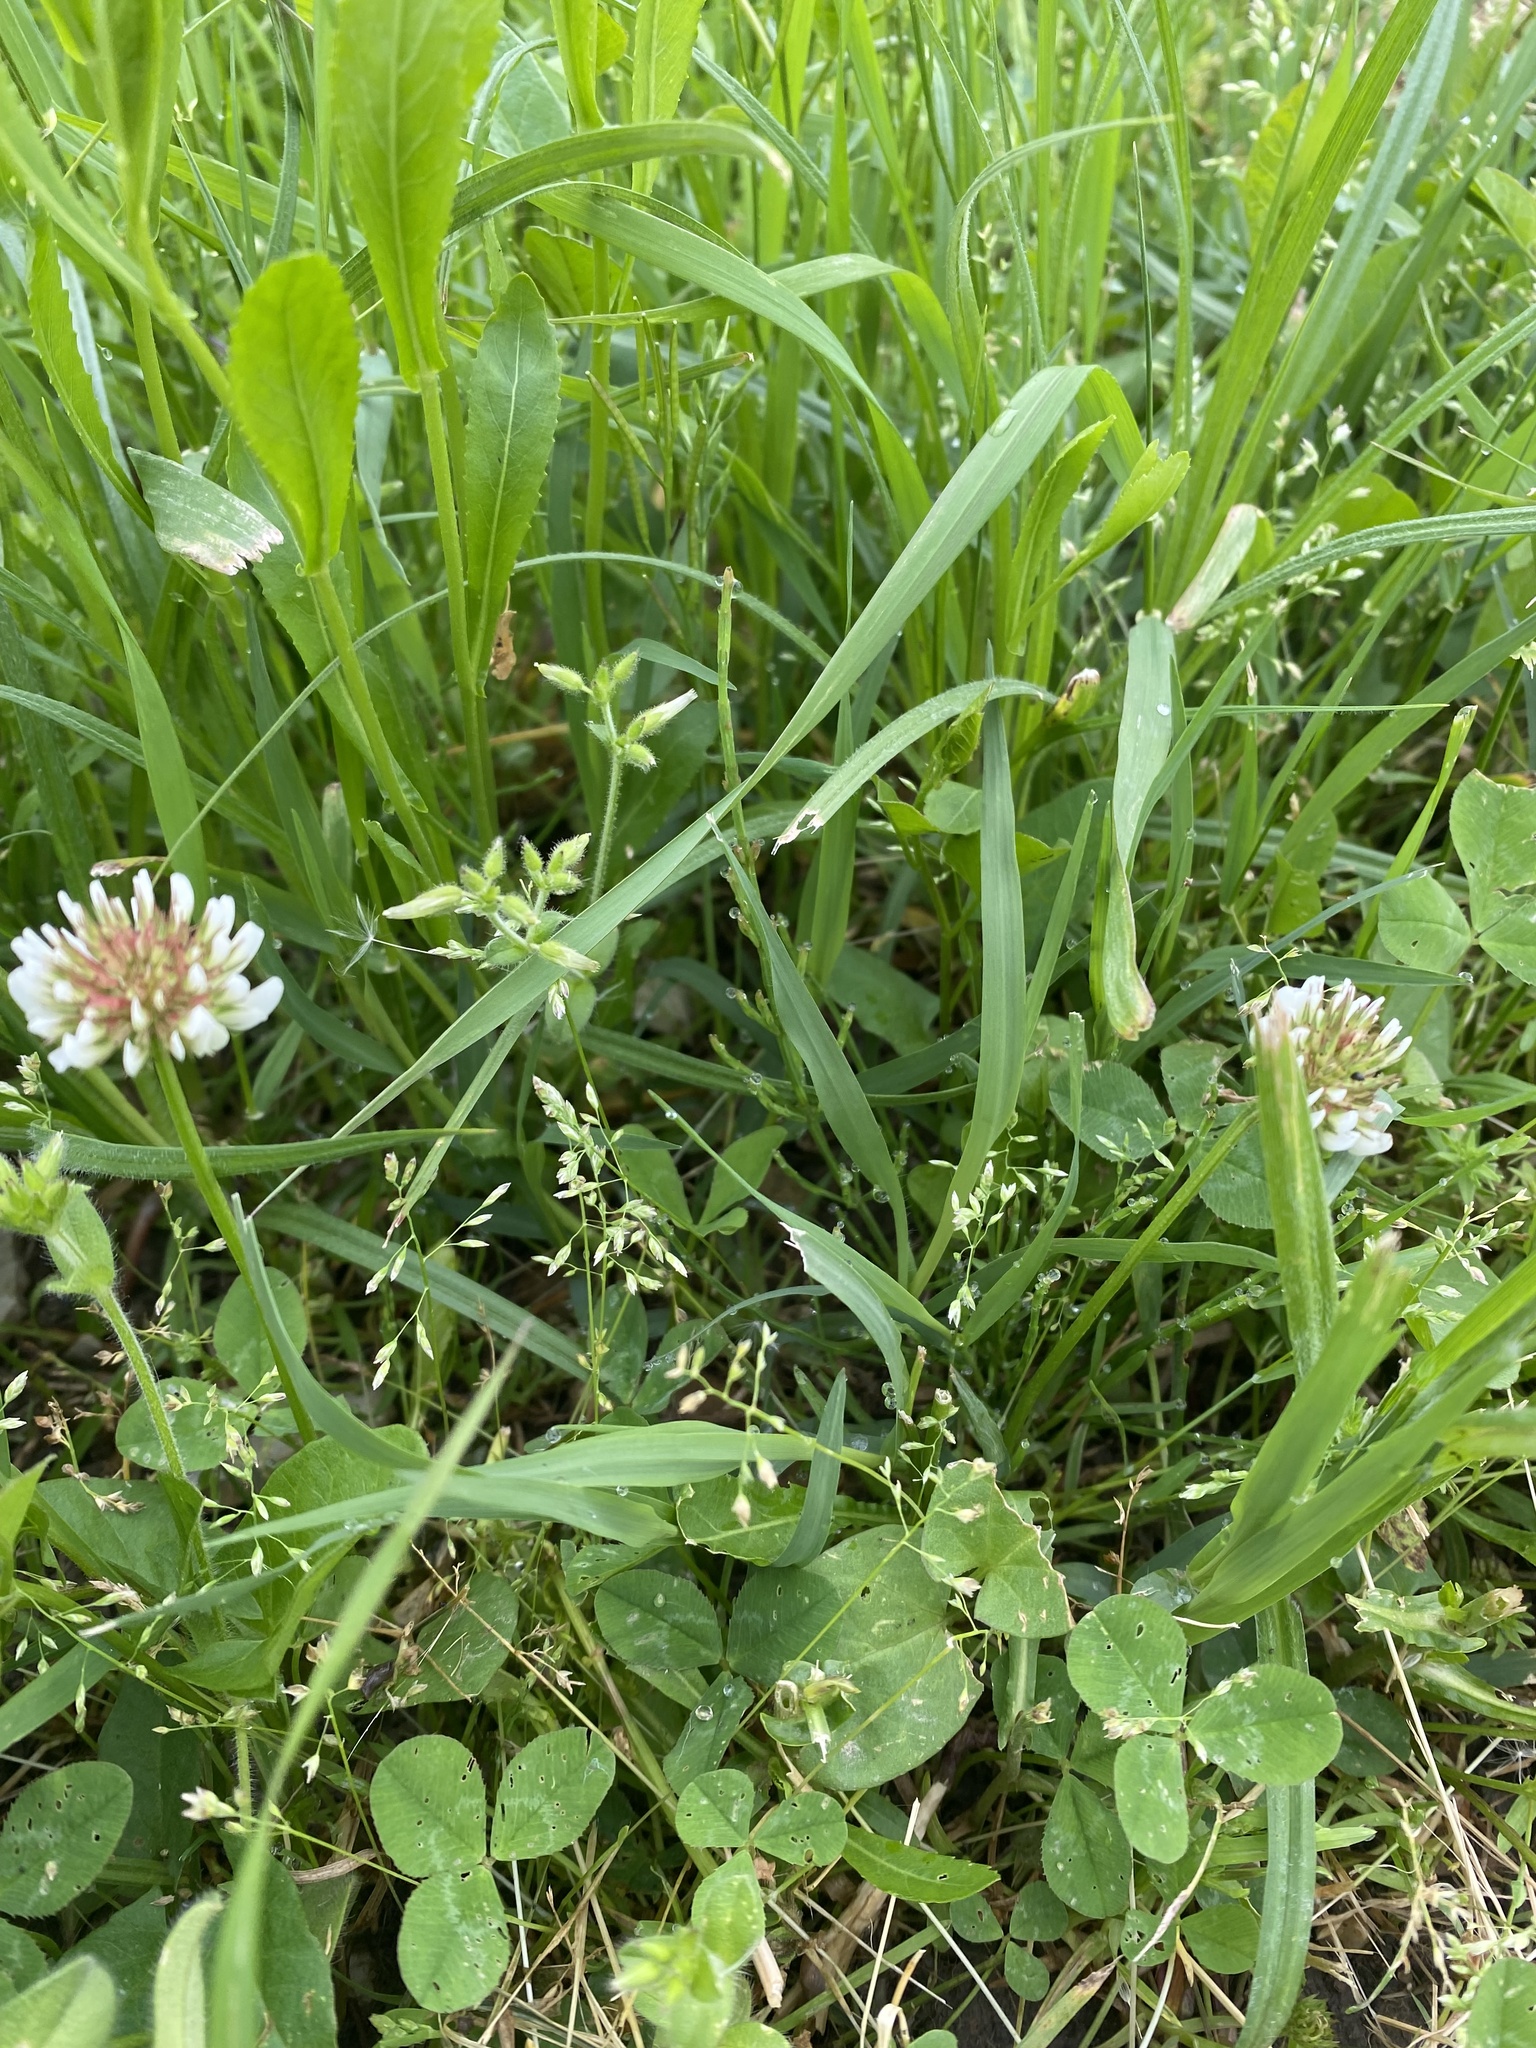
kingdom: Plantae
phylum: Tracheophyta
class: Magnoliopsida
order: Fabales
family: Fabaceae
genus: Trifolium
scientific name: Trifolium repens
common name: White clover
